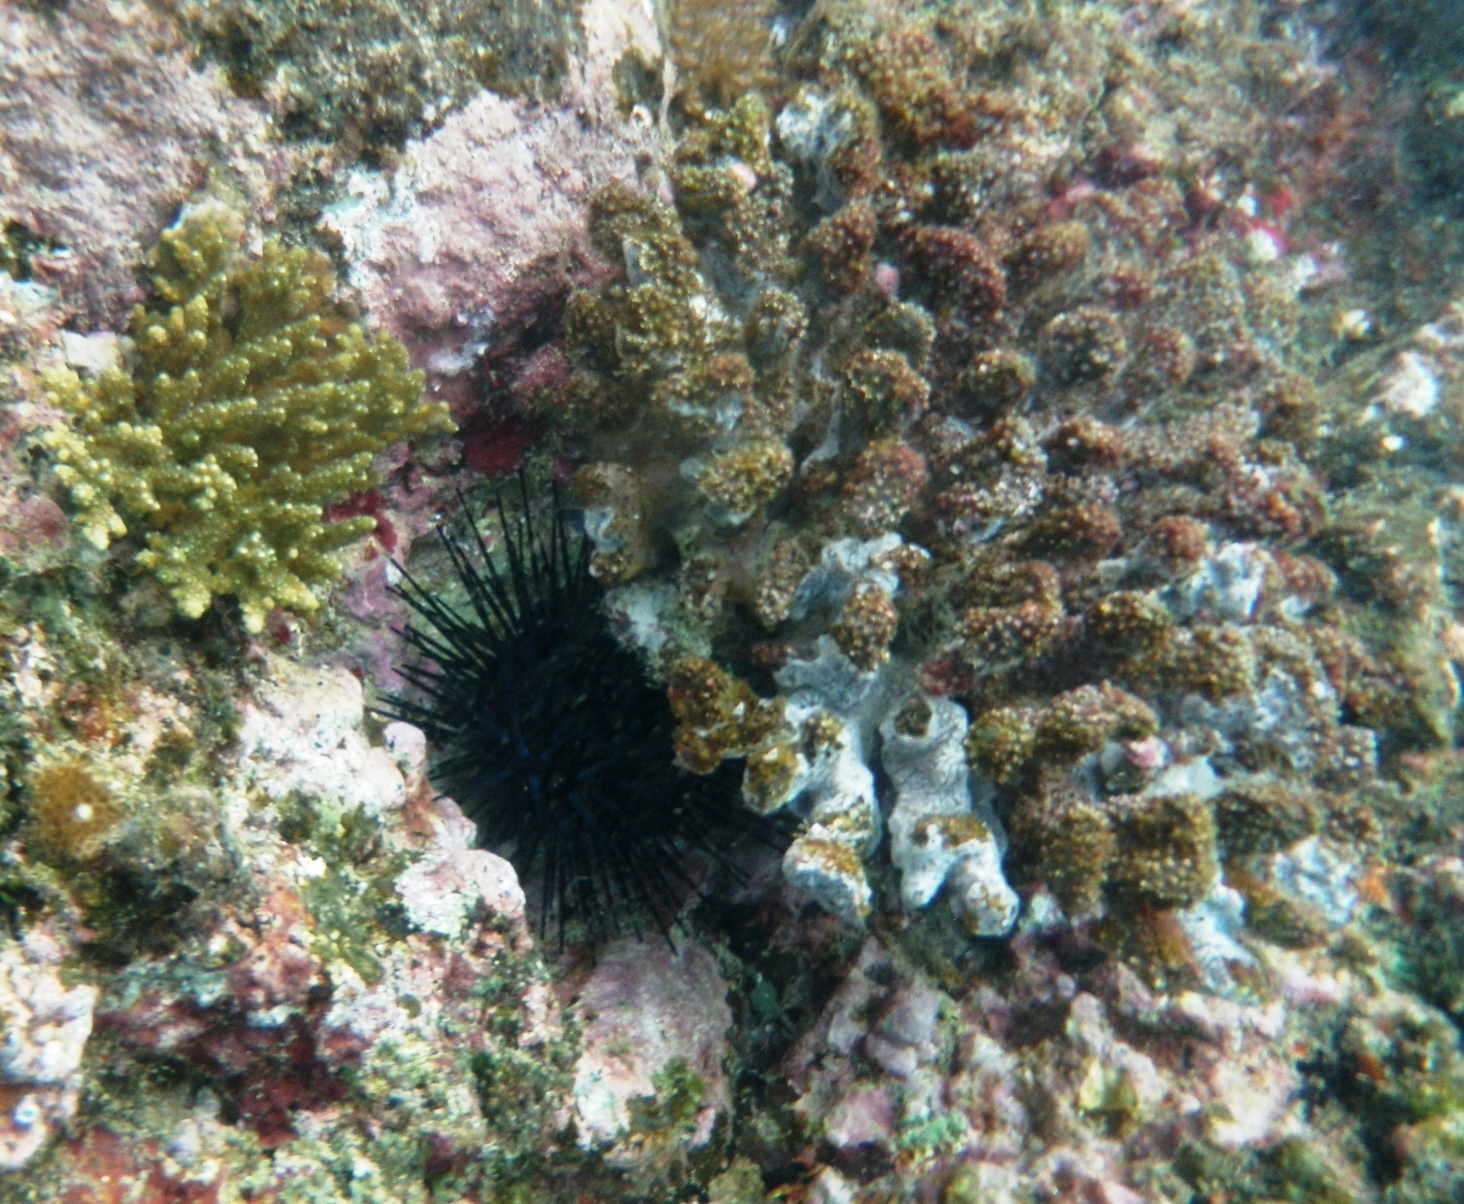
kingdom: Animalia
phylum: Echinodermata
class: Echinoidea
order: Diadematoida
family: Diadematidae
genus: Echinothrix
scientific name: Echinothrix diadema
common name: Schwarzer diademseeigel
